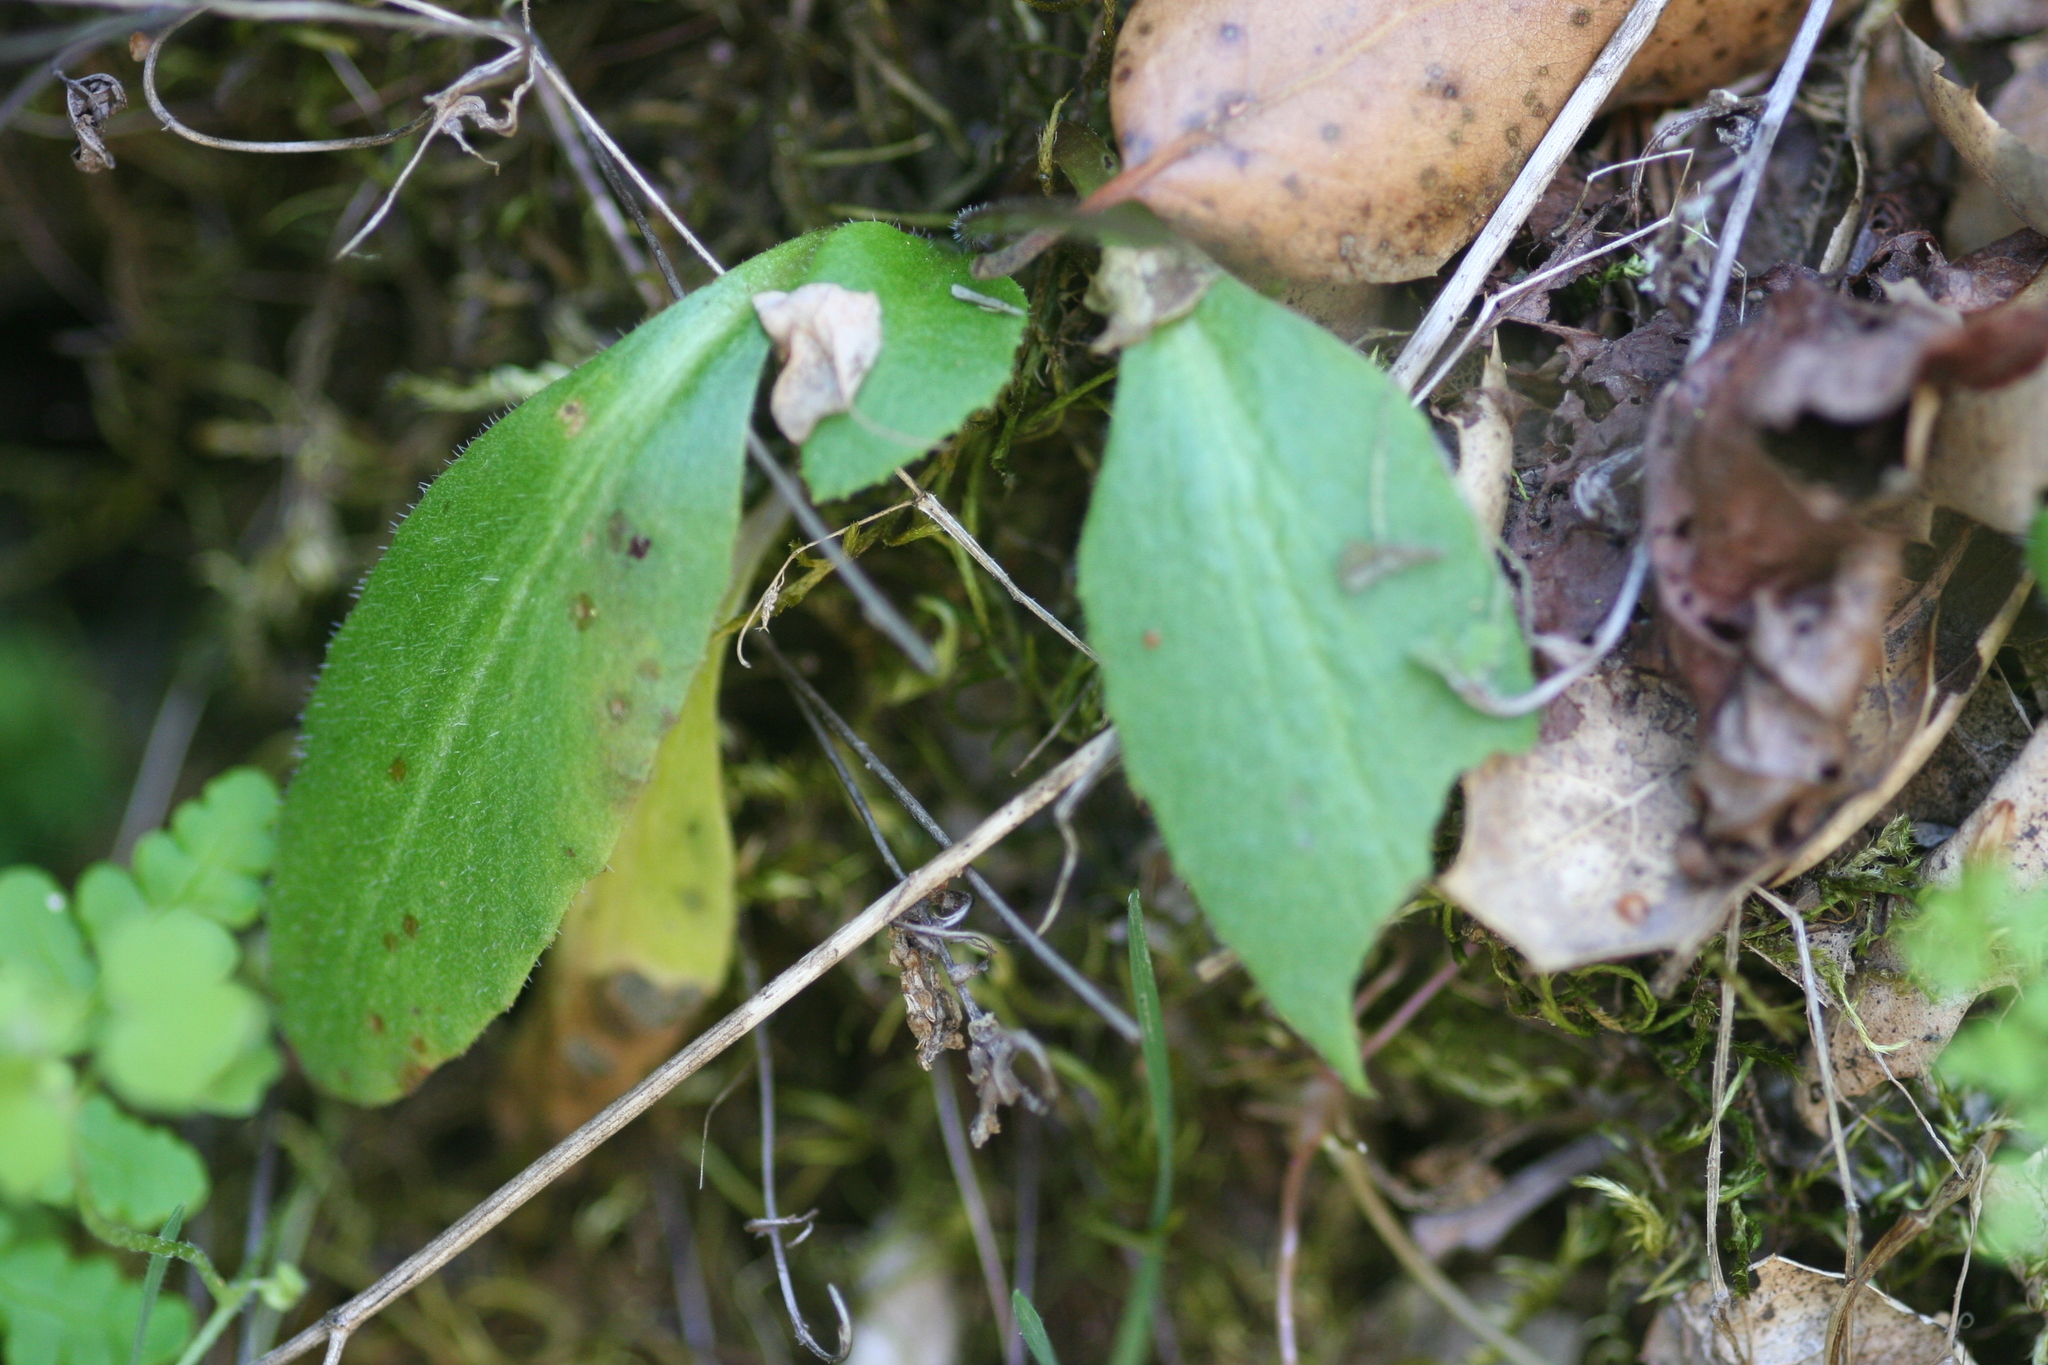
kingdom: Plantae
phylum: Tracheophyta
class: Magnoliopsida
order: Saxifragales
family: Saxifragaceae
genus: Micranthes
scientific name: Micranthes californica
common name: California saxifrage
